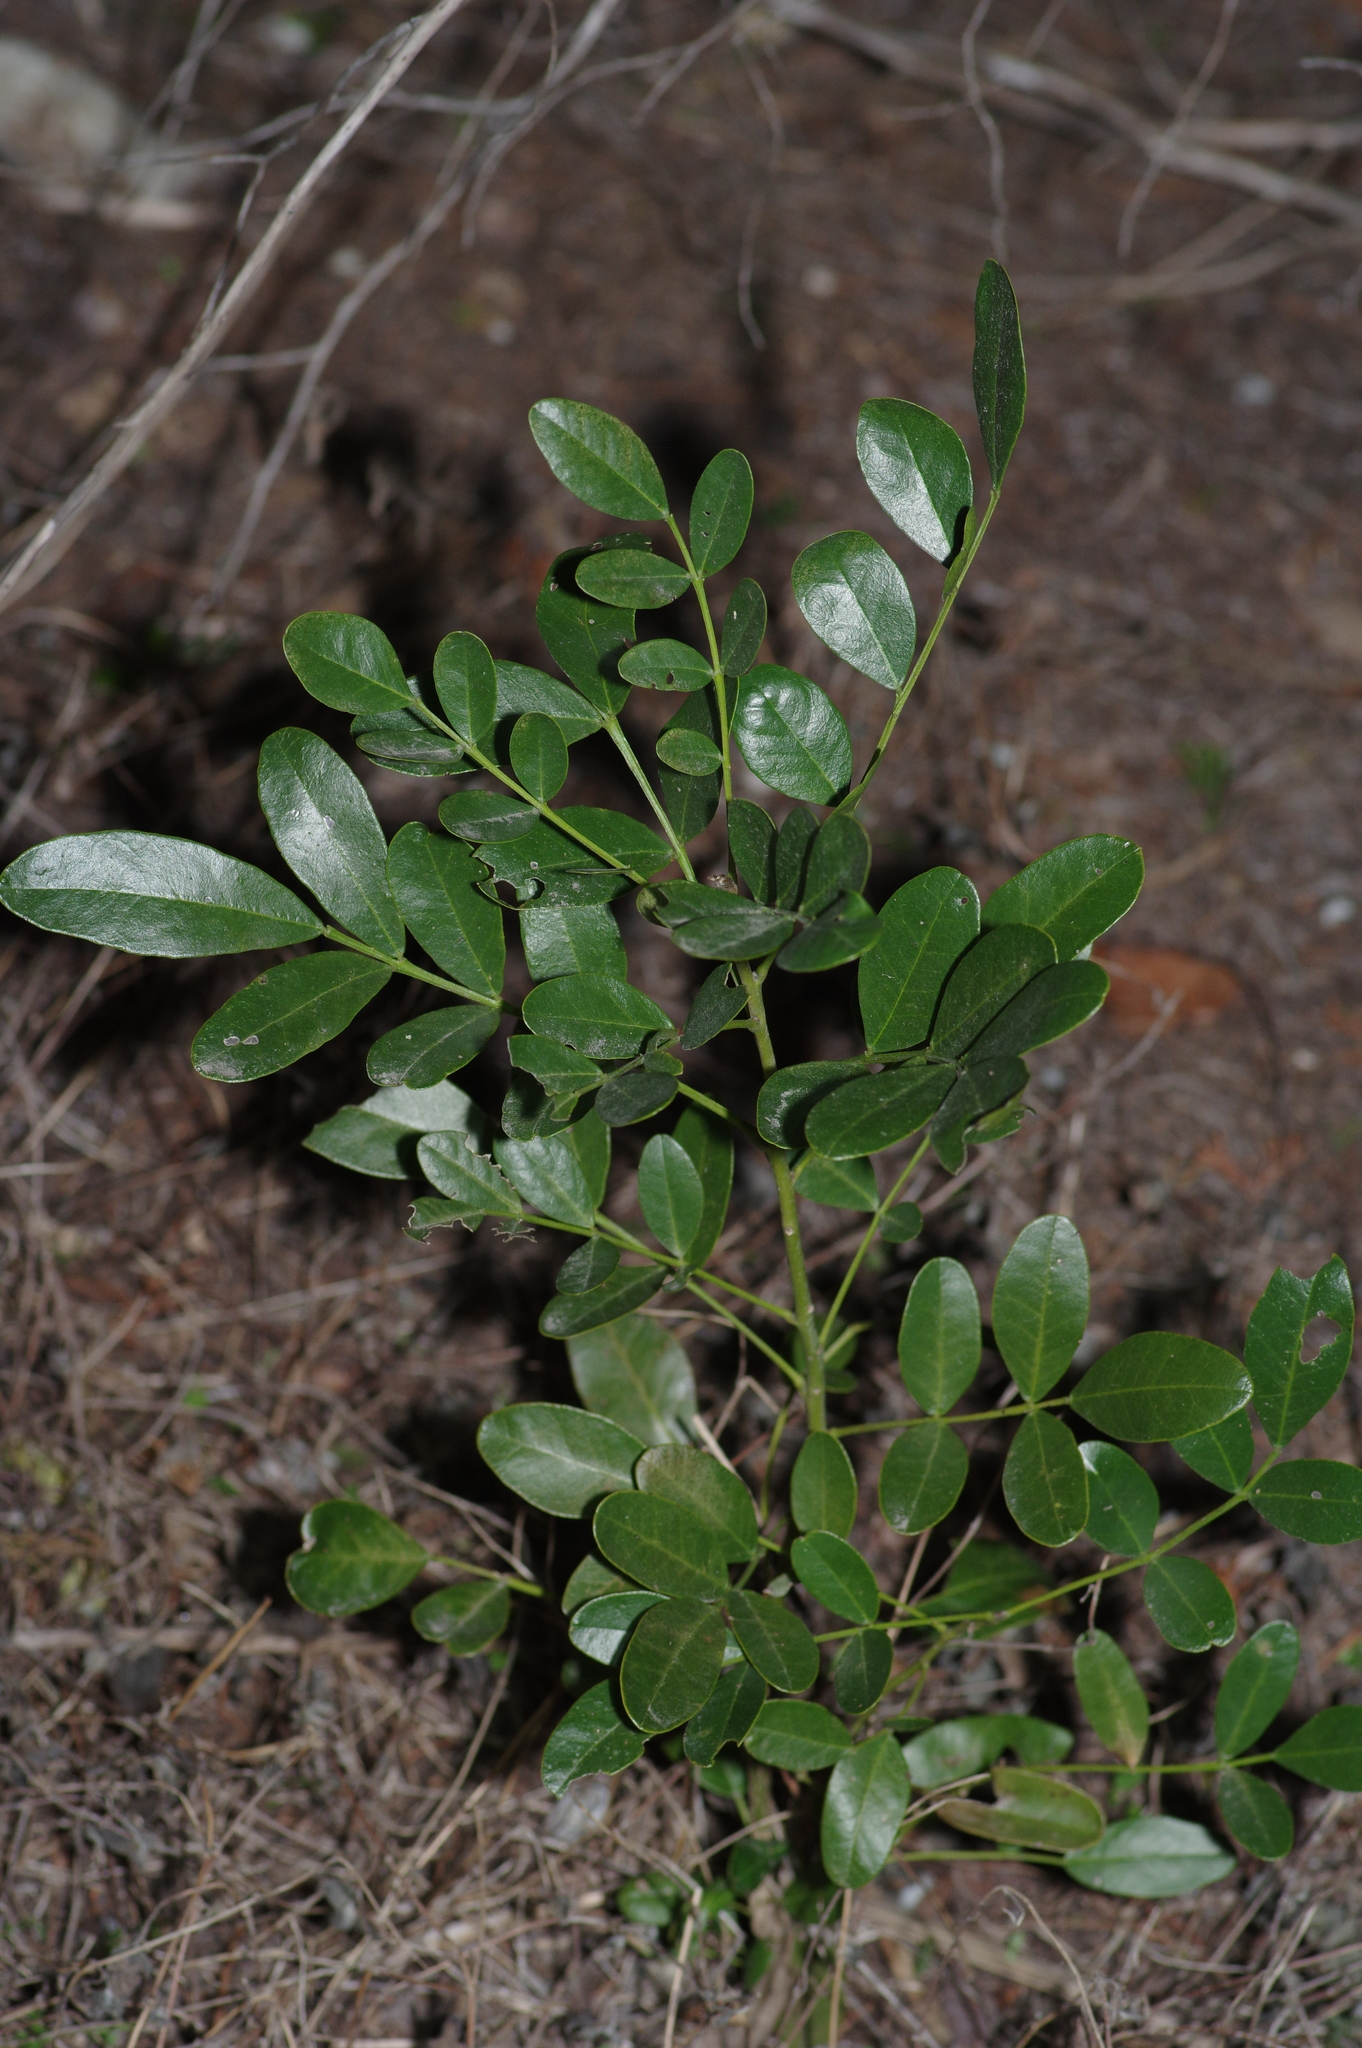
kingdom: Plantae
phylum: Tracheophyta
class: Magnoliopsida
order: Fabales
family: Fabaceae
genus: Dermatophyllum
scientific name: Dermatophyllum secundiflorum
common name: Texas-mountain-laurel
